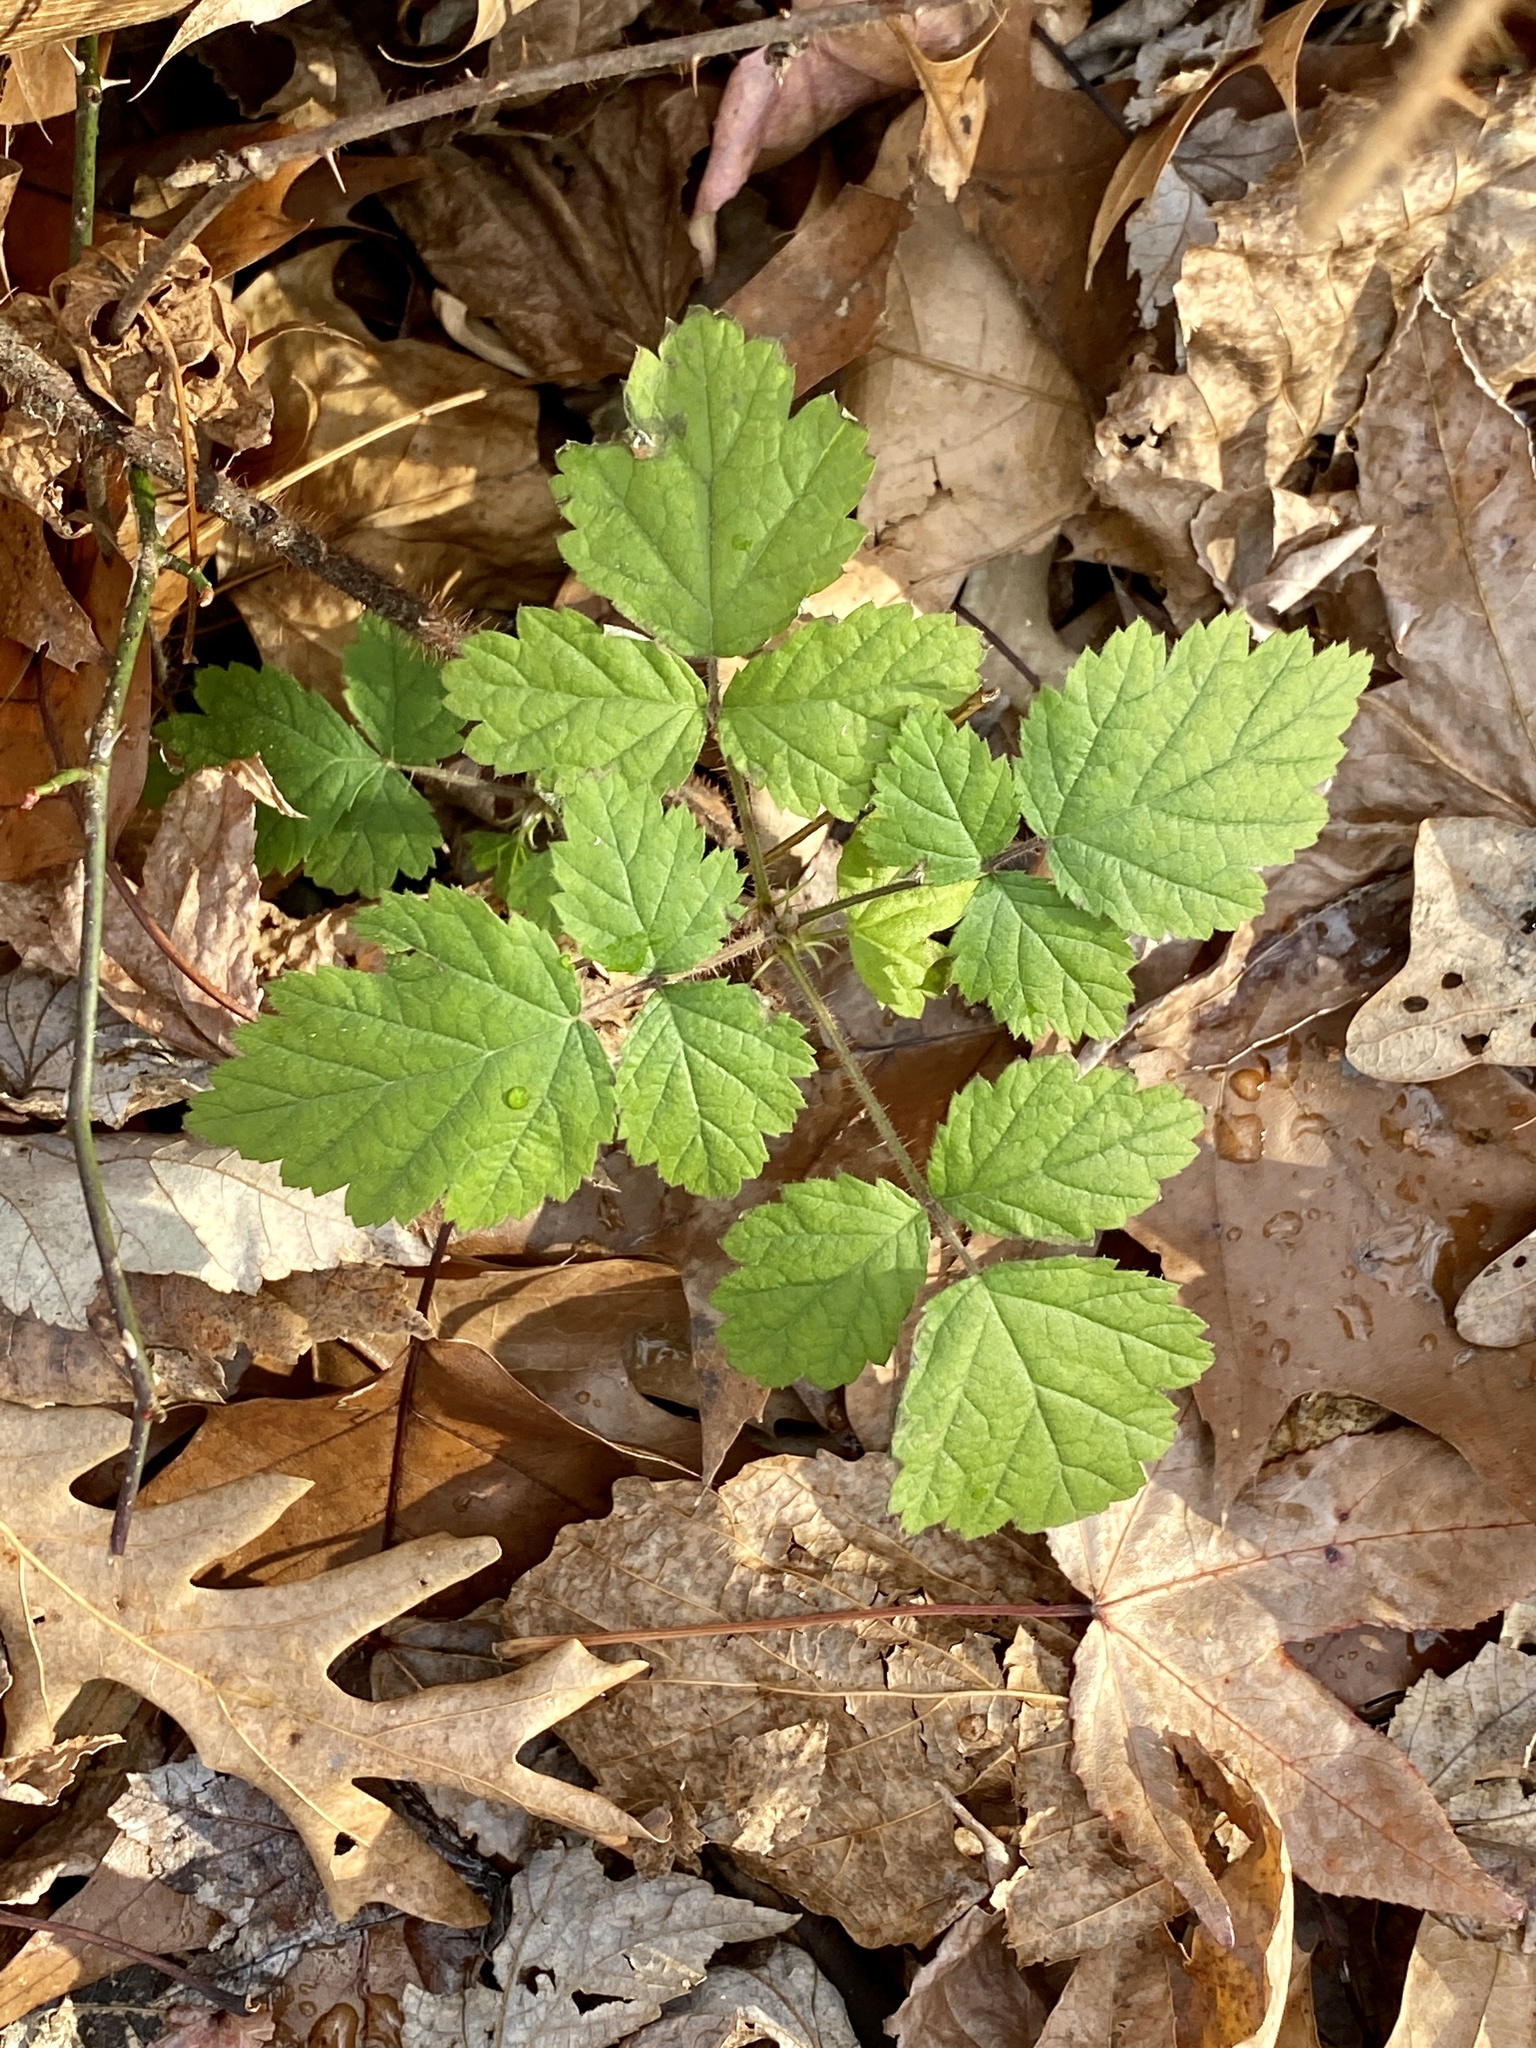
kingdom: Plantae
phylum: Tracheophyta
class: Magnoliopsida
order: Rosales
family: Rosaceae
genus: Rubus
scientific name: Rubus phoenicolasius
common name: Japanese wineberry
